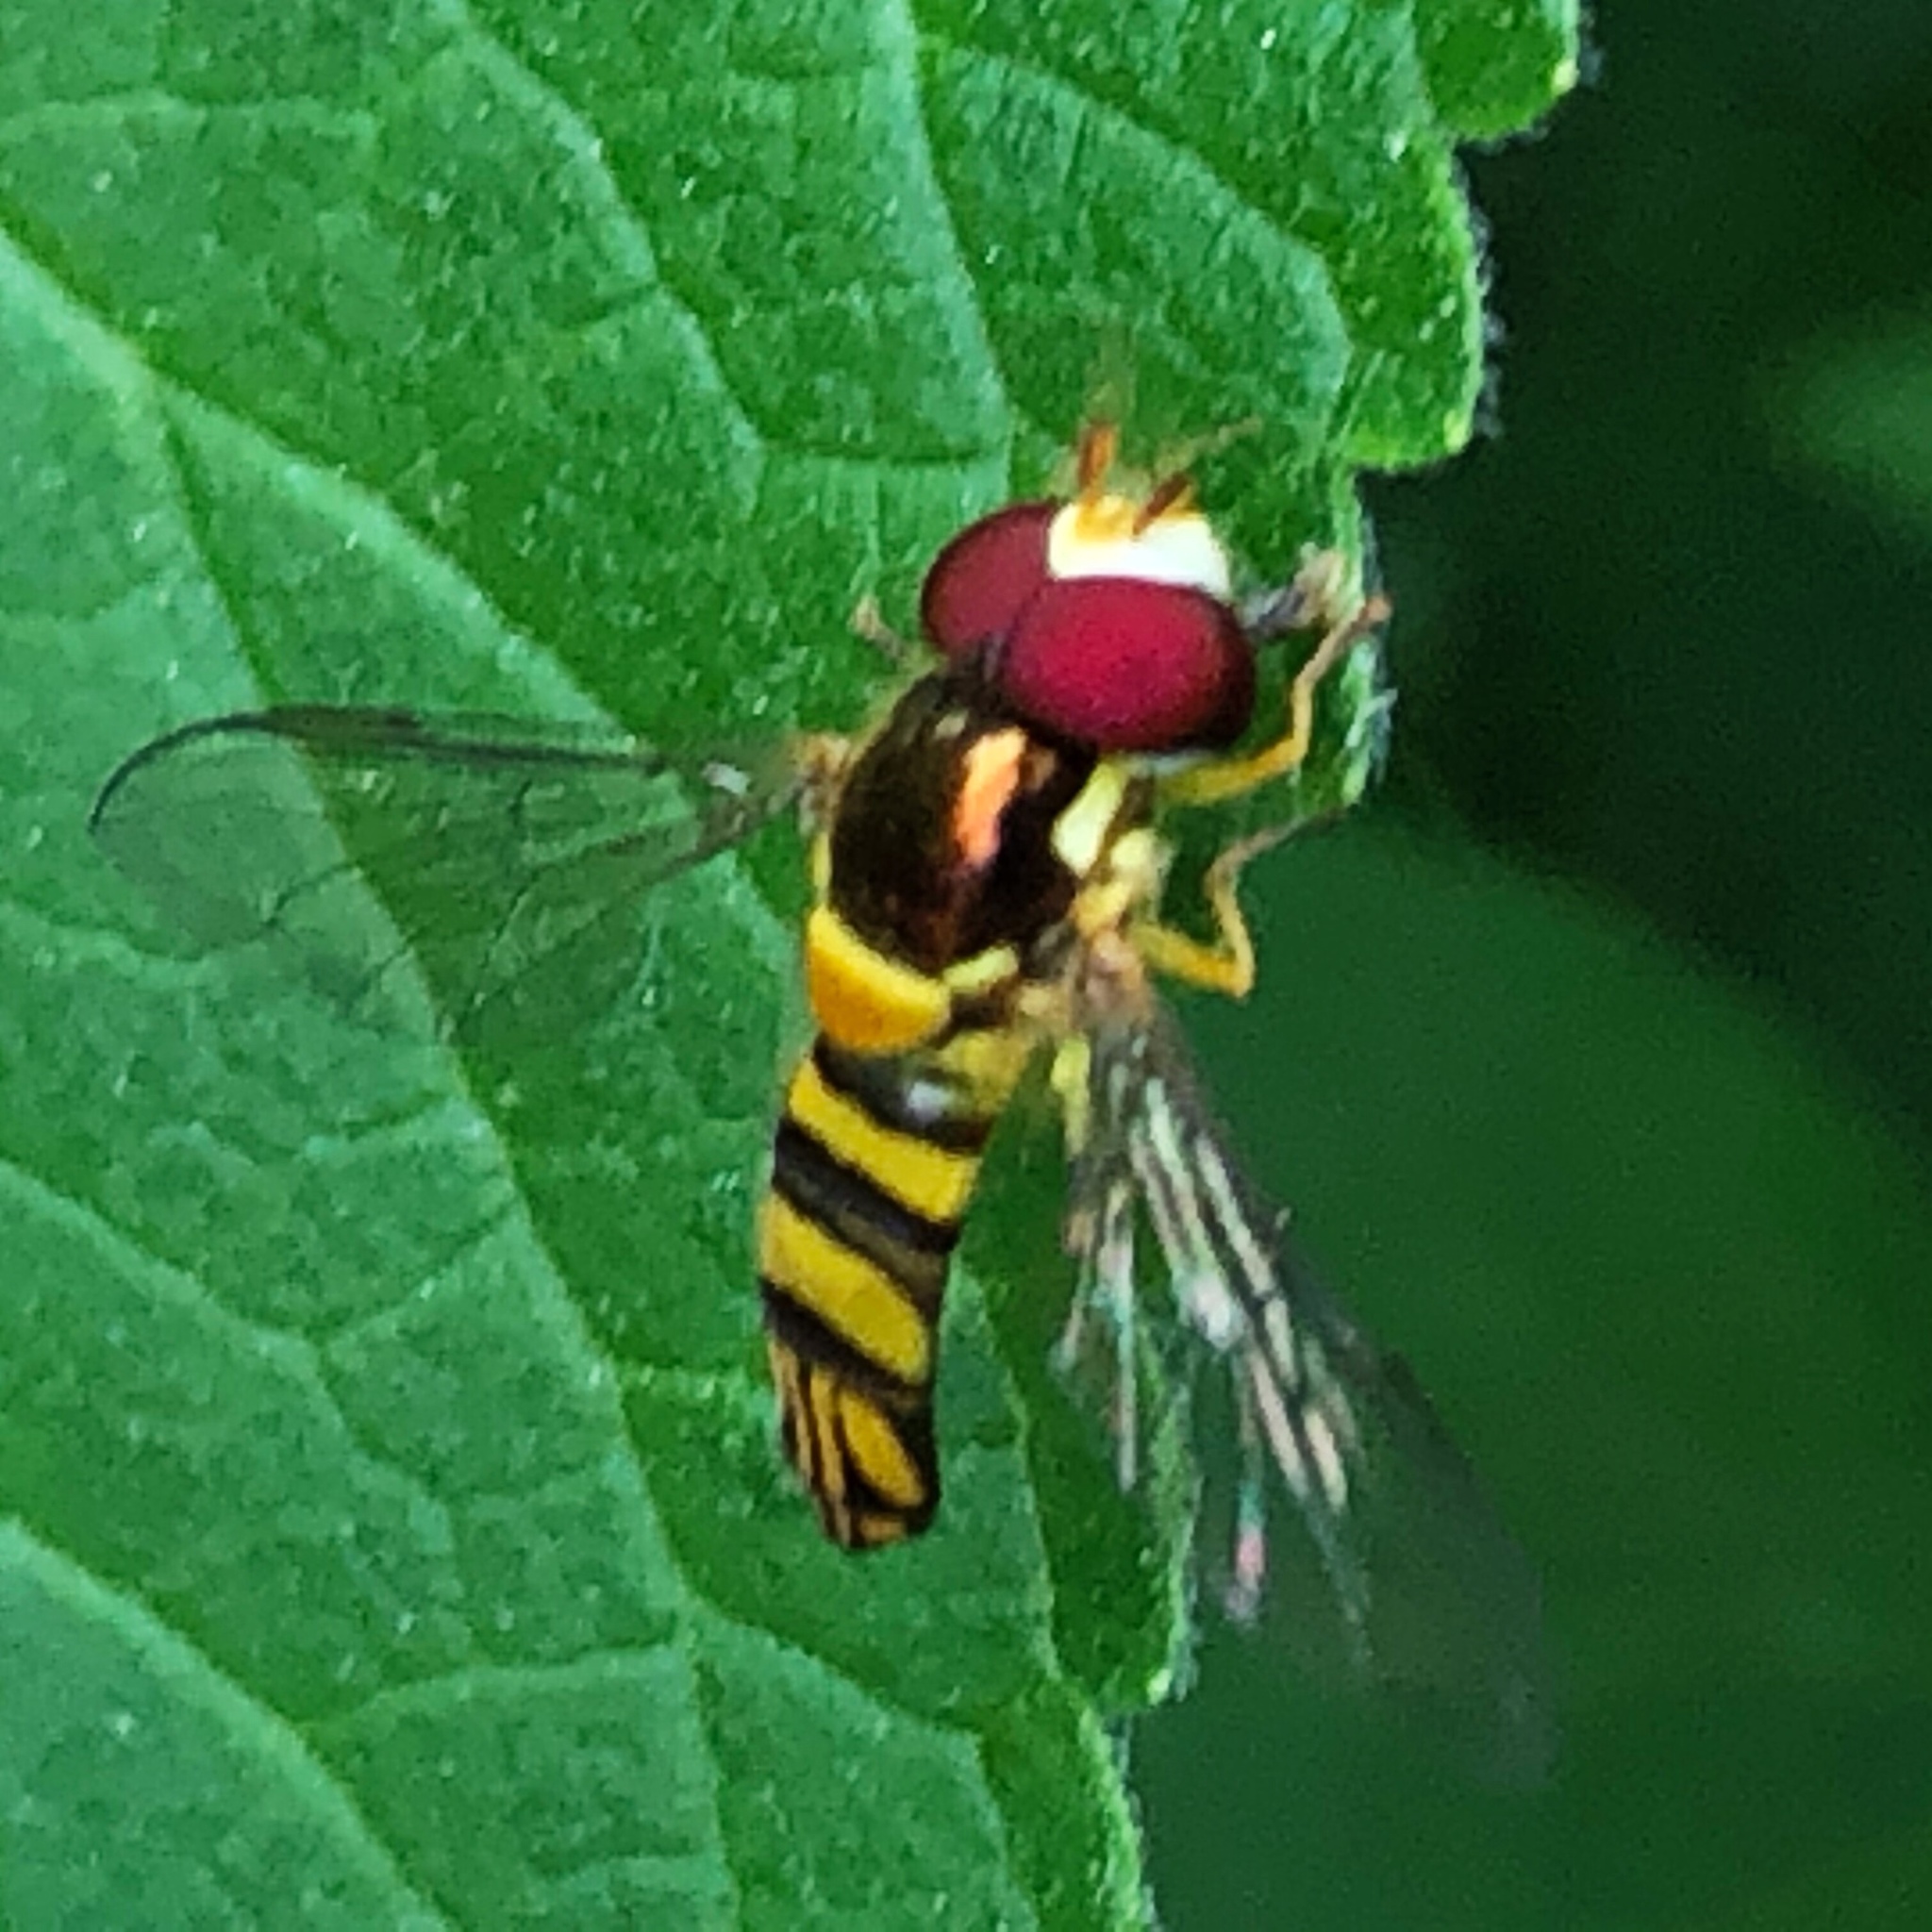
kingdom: Animalia
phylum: Arthropoda
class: Insecta
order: Diptera
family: Syrphidae
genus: Allograpta
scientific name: Allograpta obliqua
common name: Common oblique syrphid
